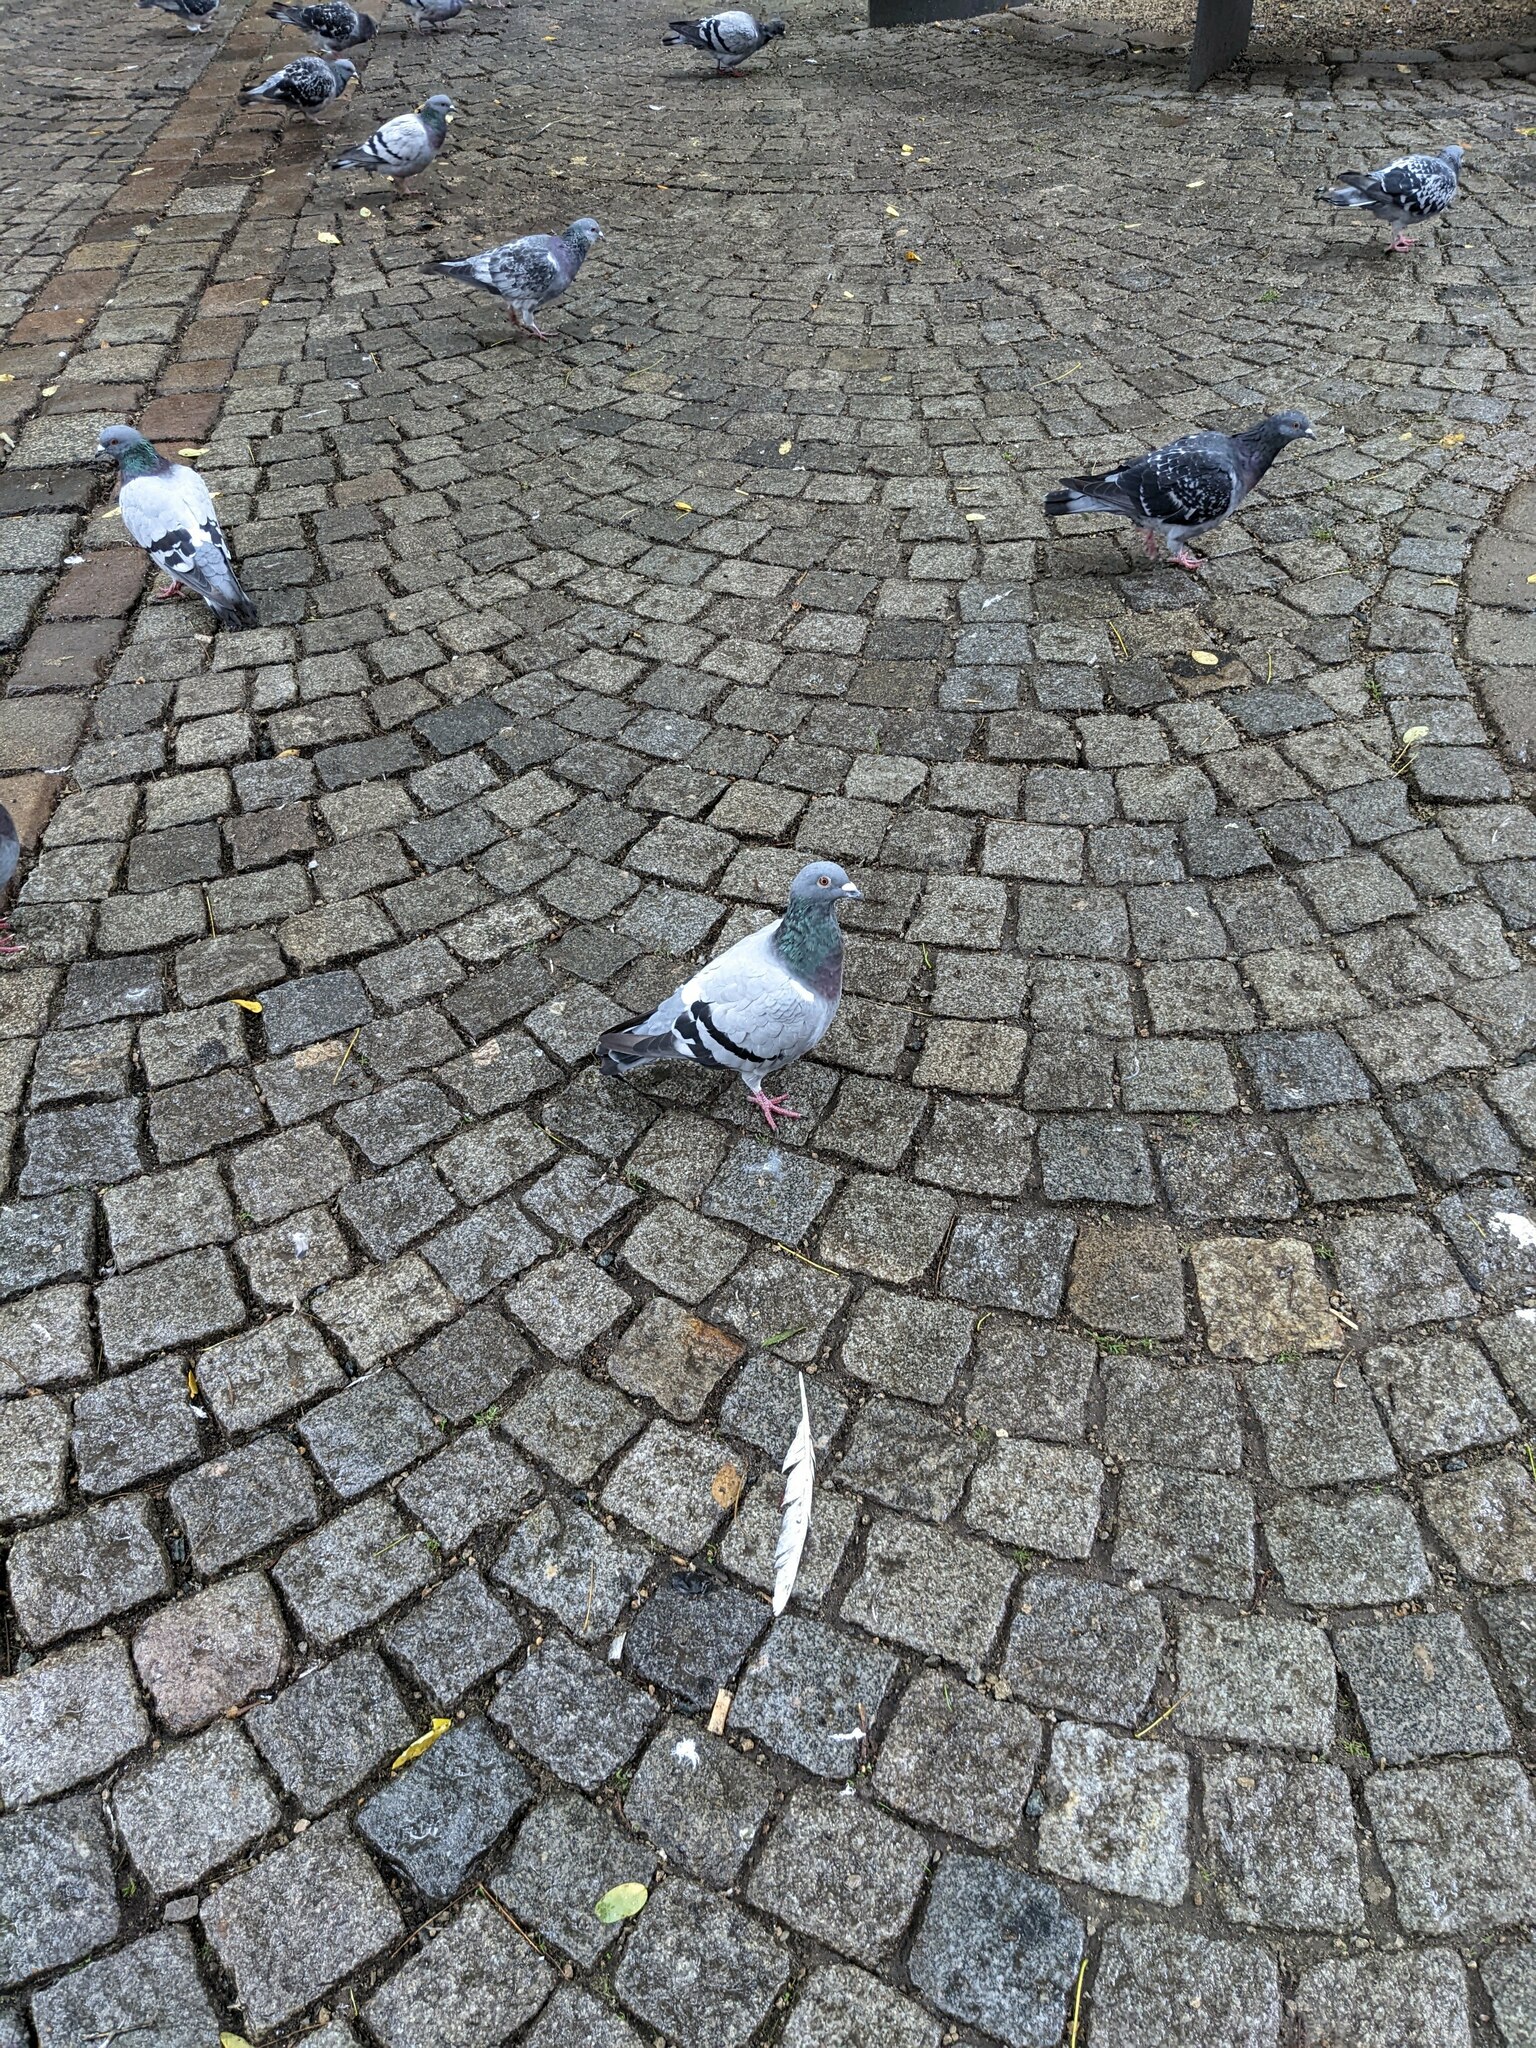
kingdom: Animalia
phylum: Chordata
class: Aves
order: Columbiformes
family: Columbidae
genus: Columba
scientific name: Columba livia
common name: Rock pigeon
